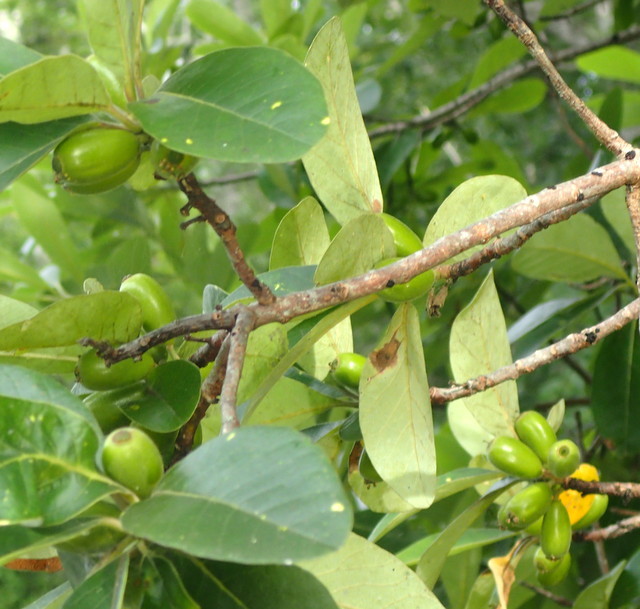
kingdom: Plantae
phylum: Tracheophyta
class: Magnoliopsida
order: Cornales
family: Nyssaceae
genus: Nyssa
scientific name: Nyssa ogeche
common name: Ogeechee tupelo
